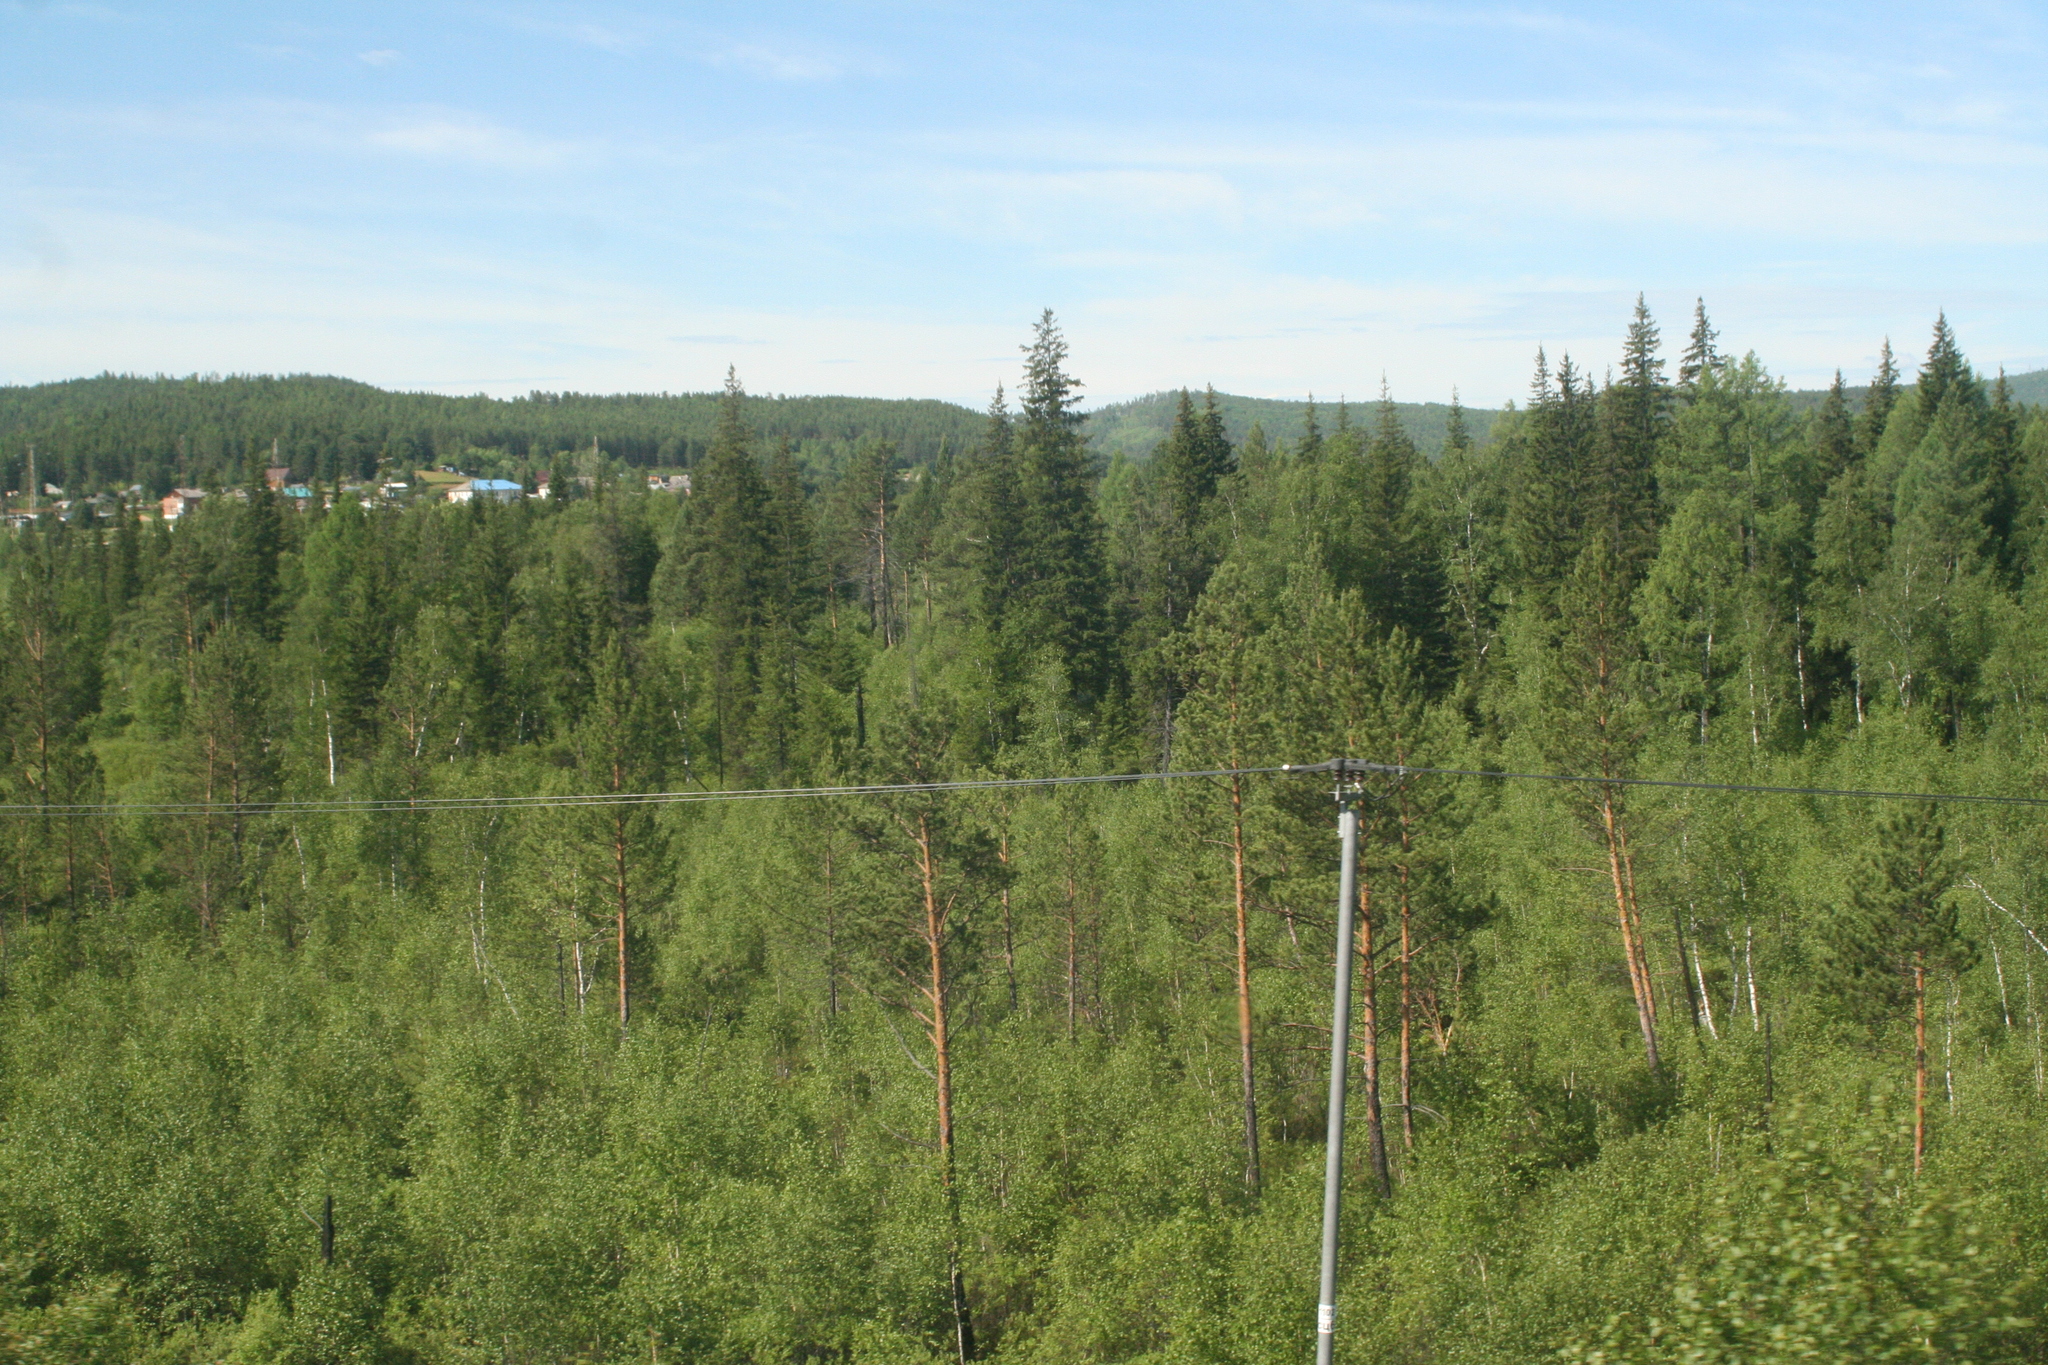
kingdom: Plantae
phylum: Tracheophyta
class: Pinopsida
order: Pinales
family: Pinaceae
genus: Picea
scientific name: Picea obovata
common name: Siberian spruce
